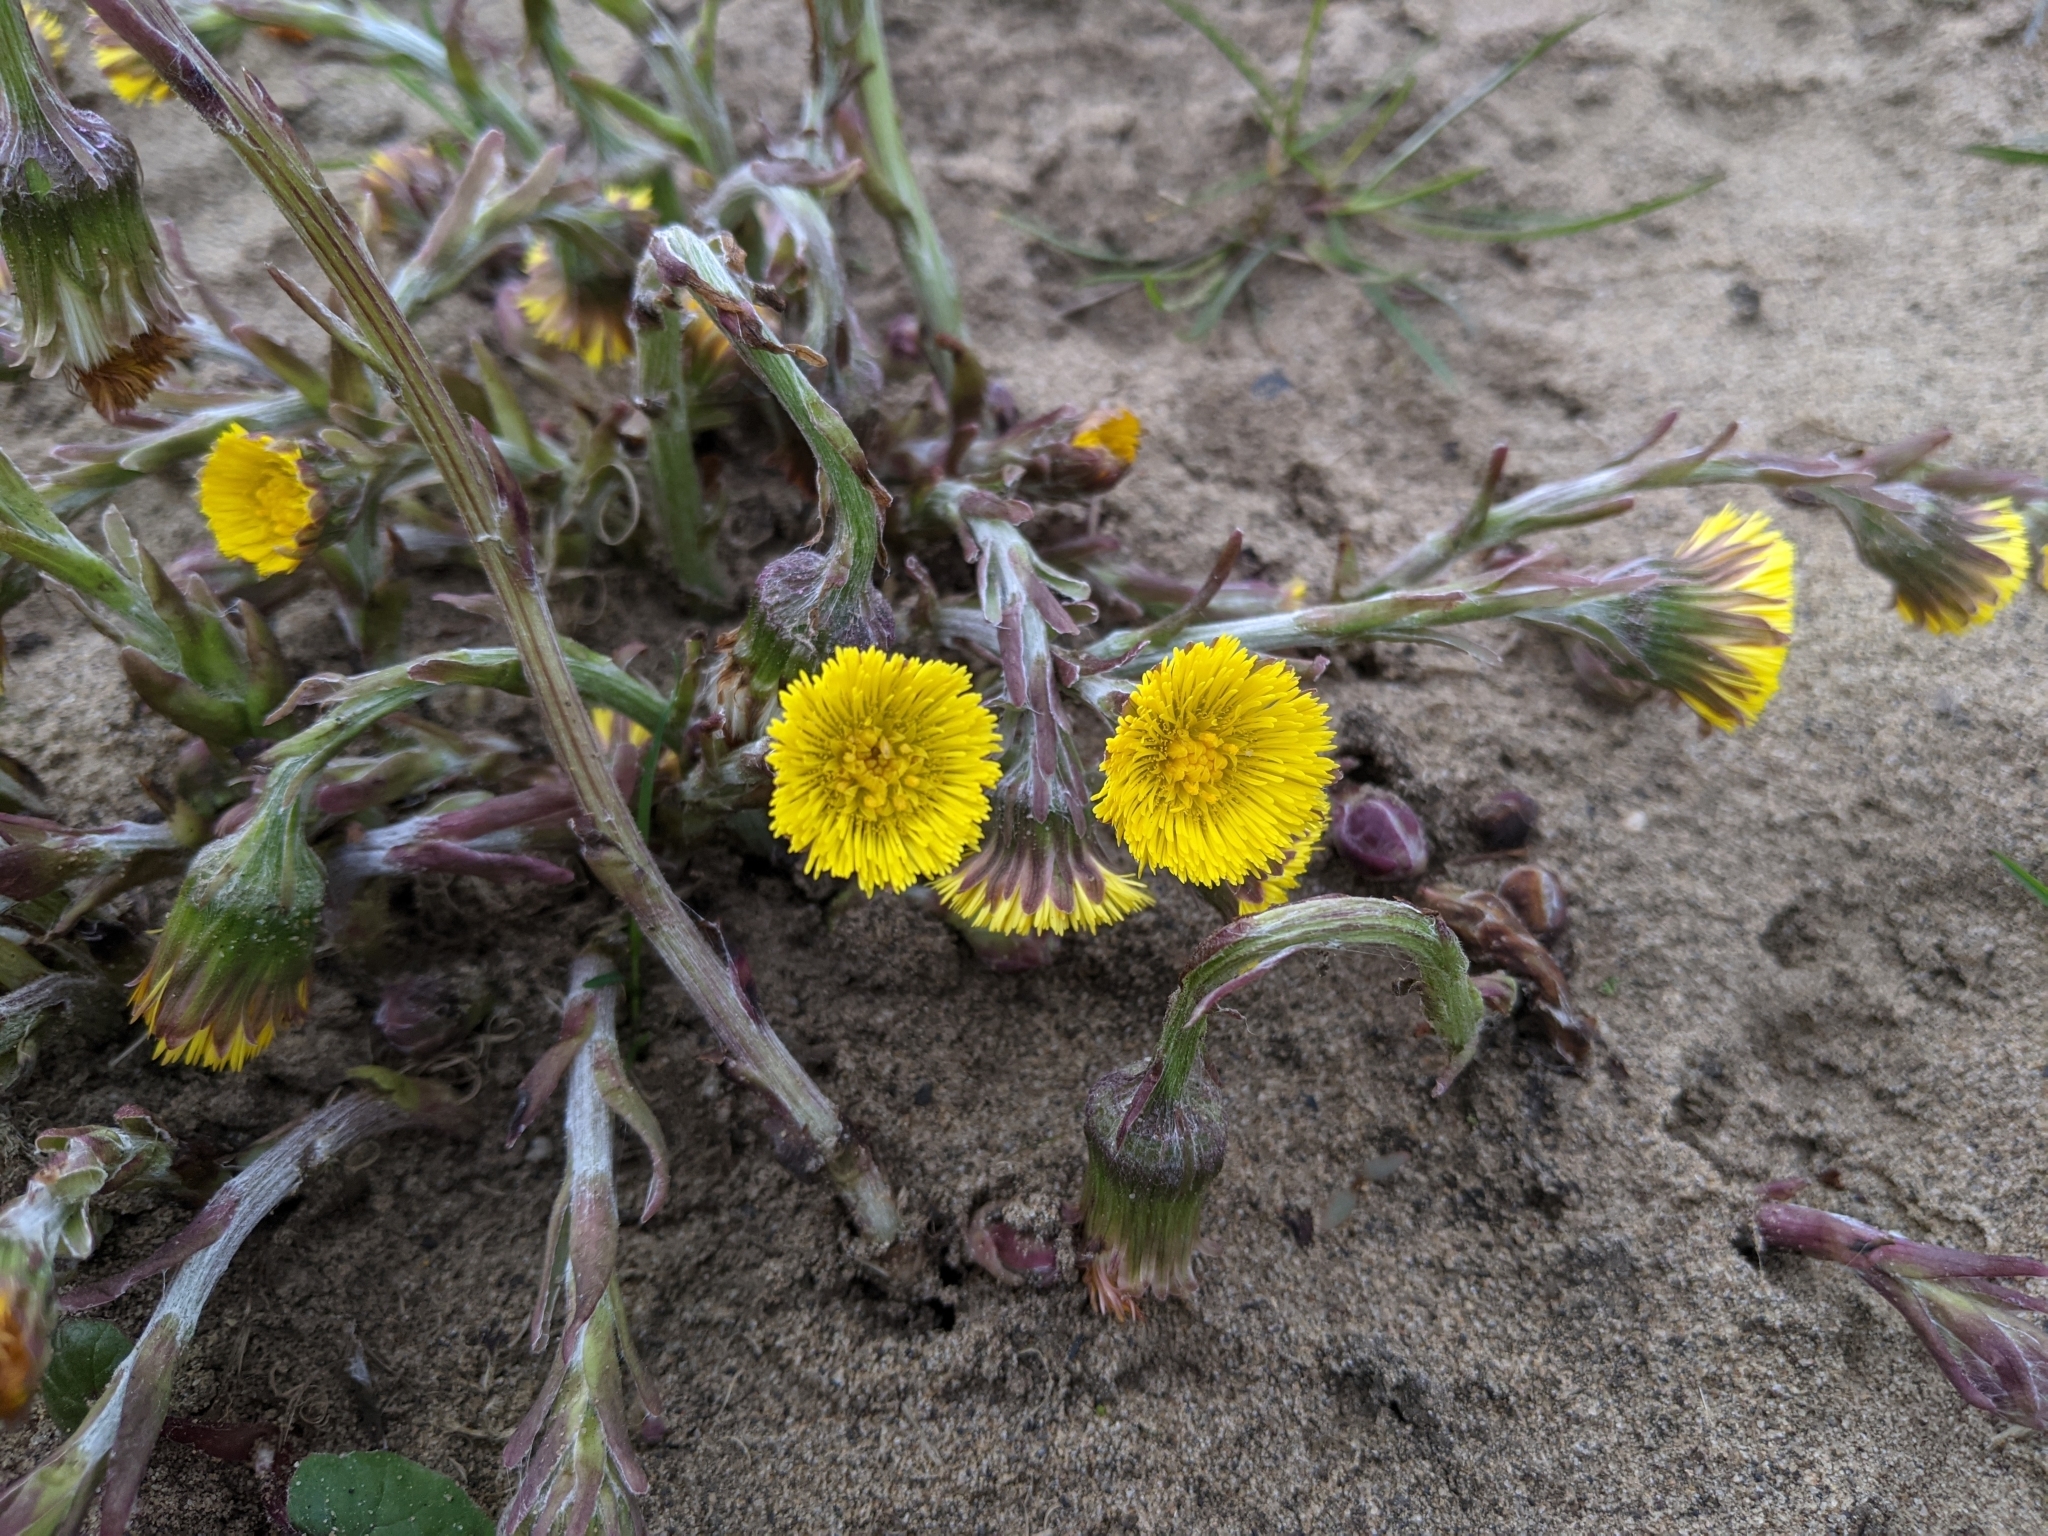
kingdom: Plantae
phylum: Tracheophyta
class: Magnoliopsida
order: Asterales
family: Asteraceae
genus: Tussilago
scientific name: Tussilago farfara
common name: Coltsfoot
